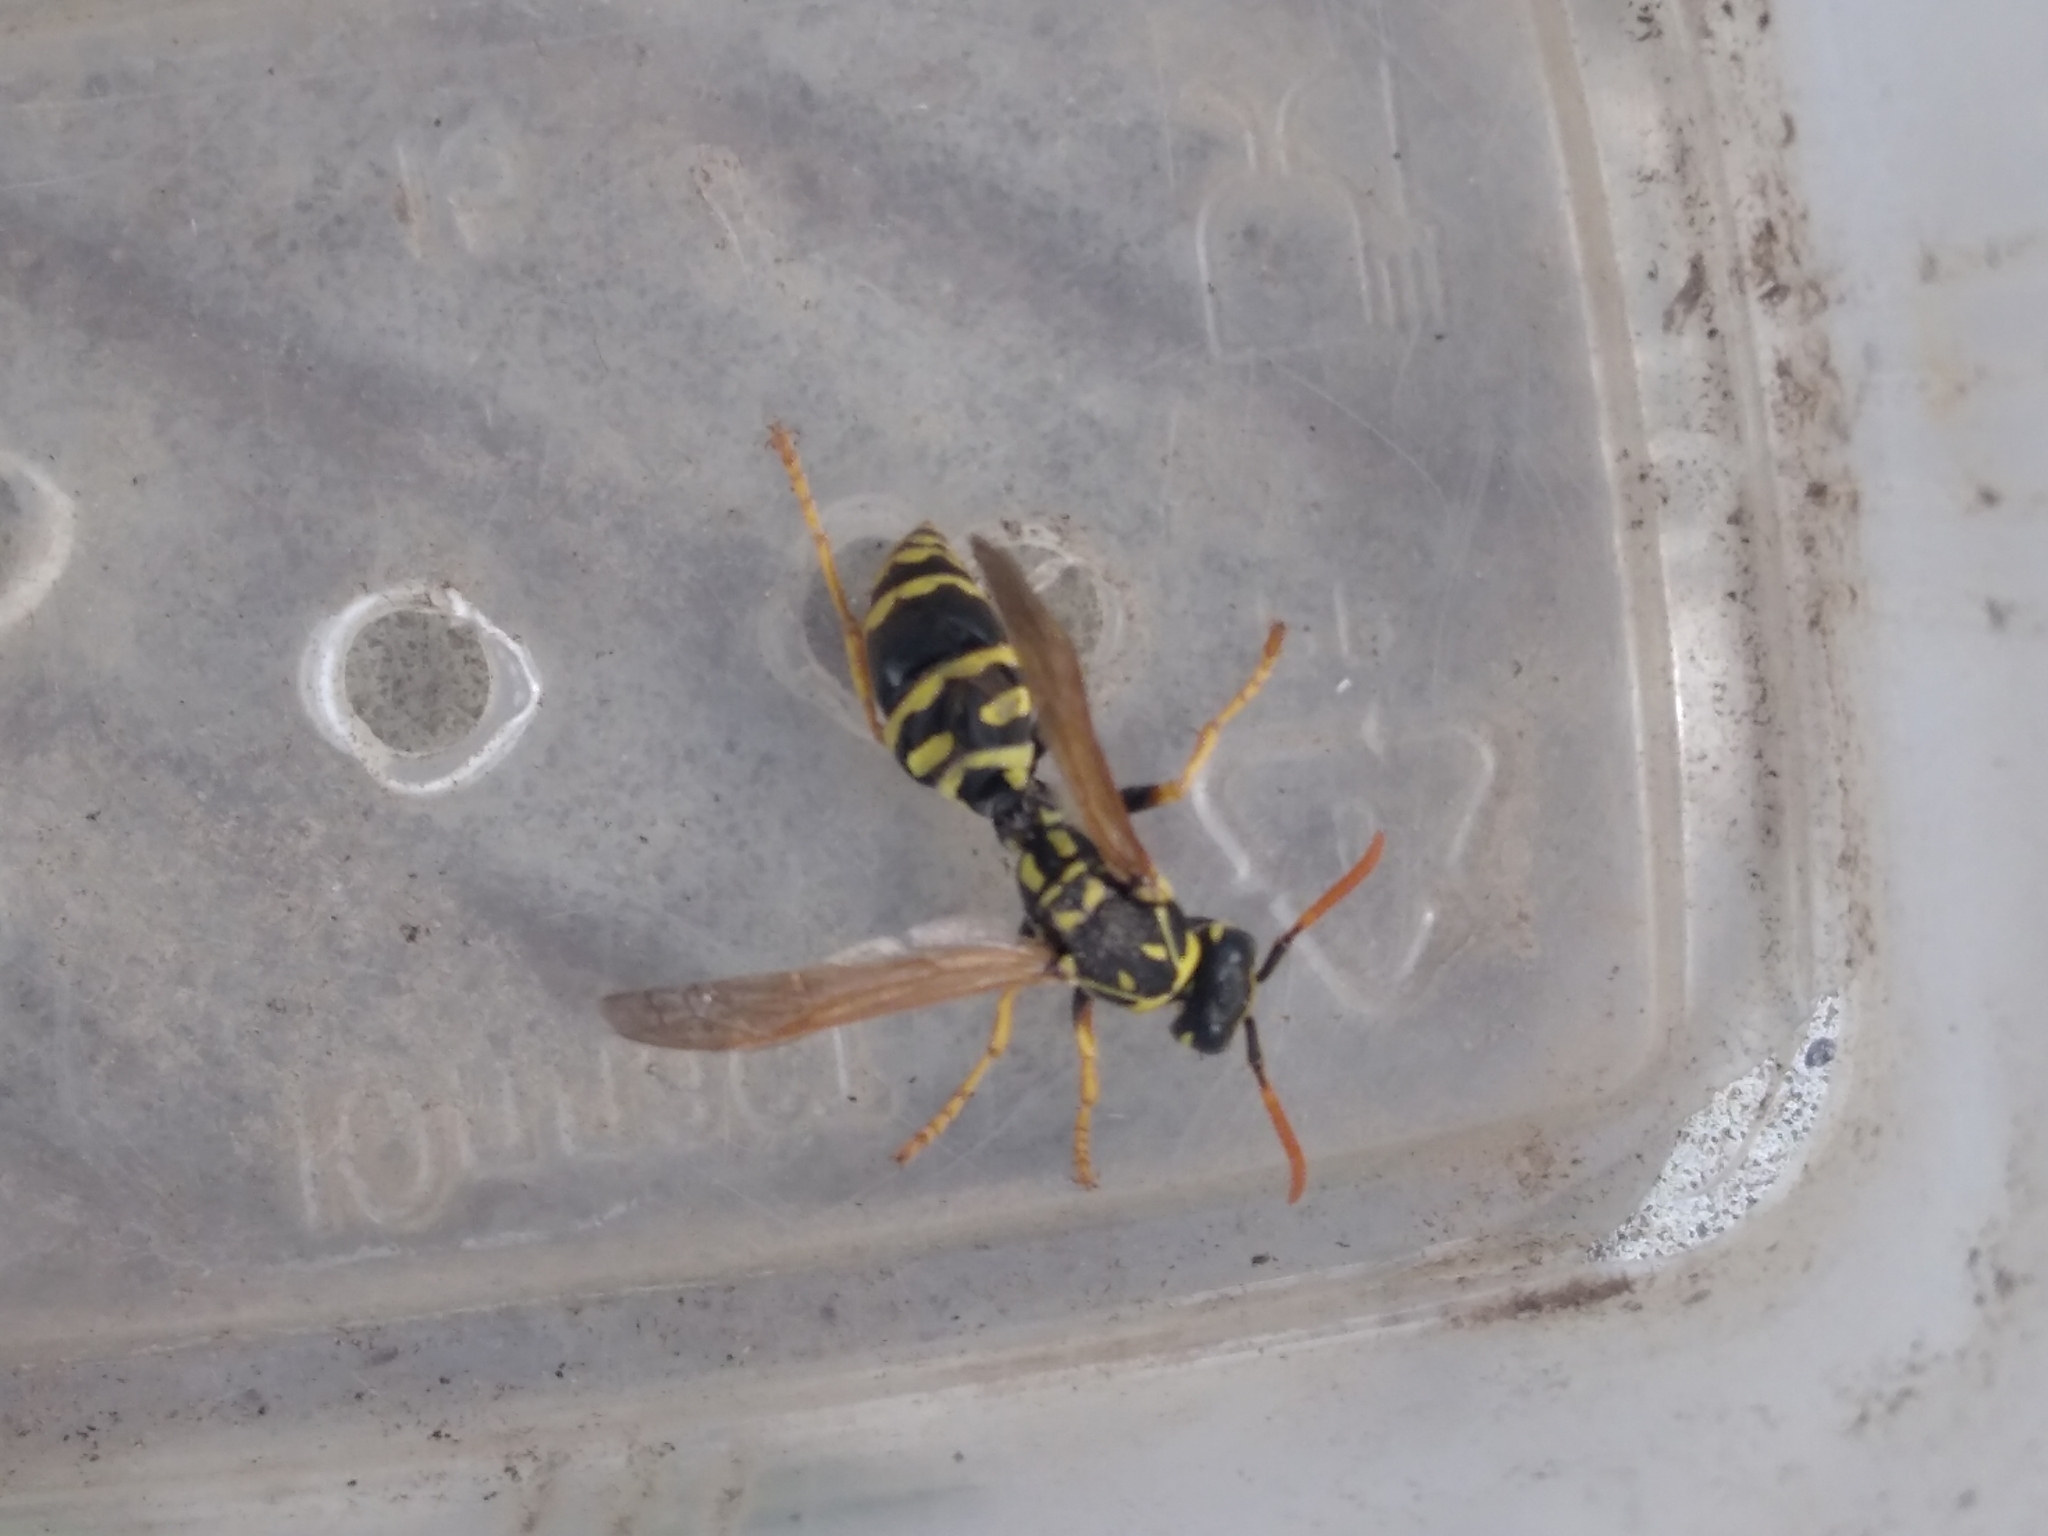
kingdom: Animalia
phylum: Arthropoda
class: Insecta
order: Hymenoptera
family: Eumenidae
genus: Polistes
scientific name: Polistes dominula
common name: Paper wasp
